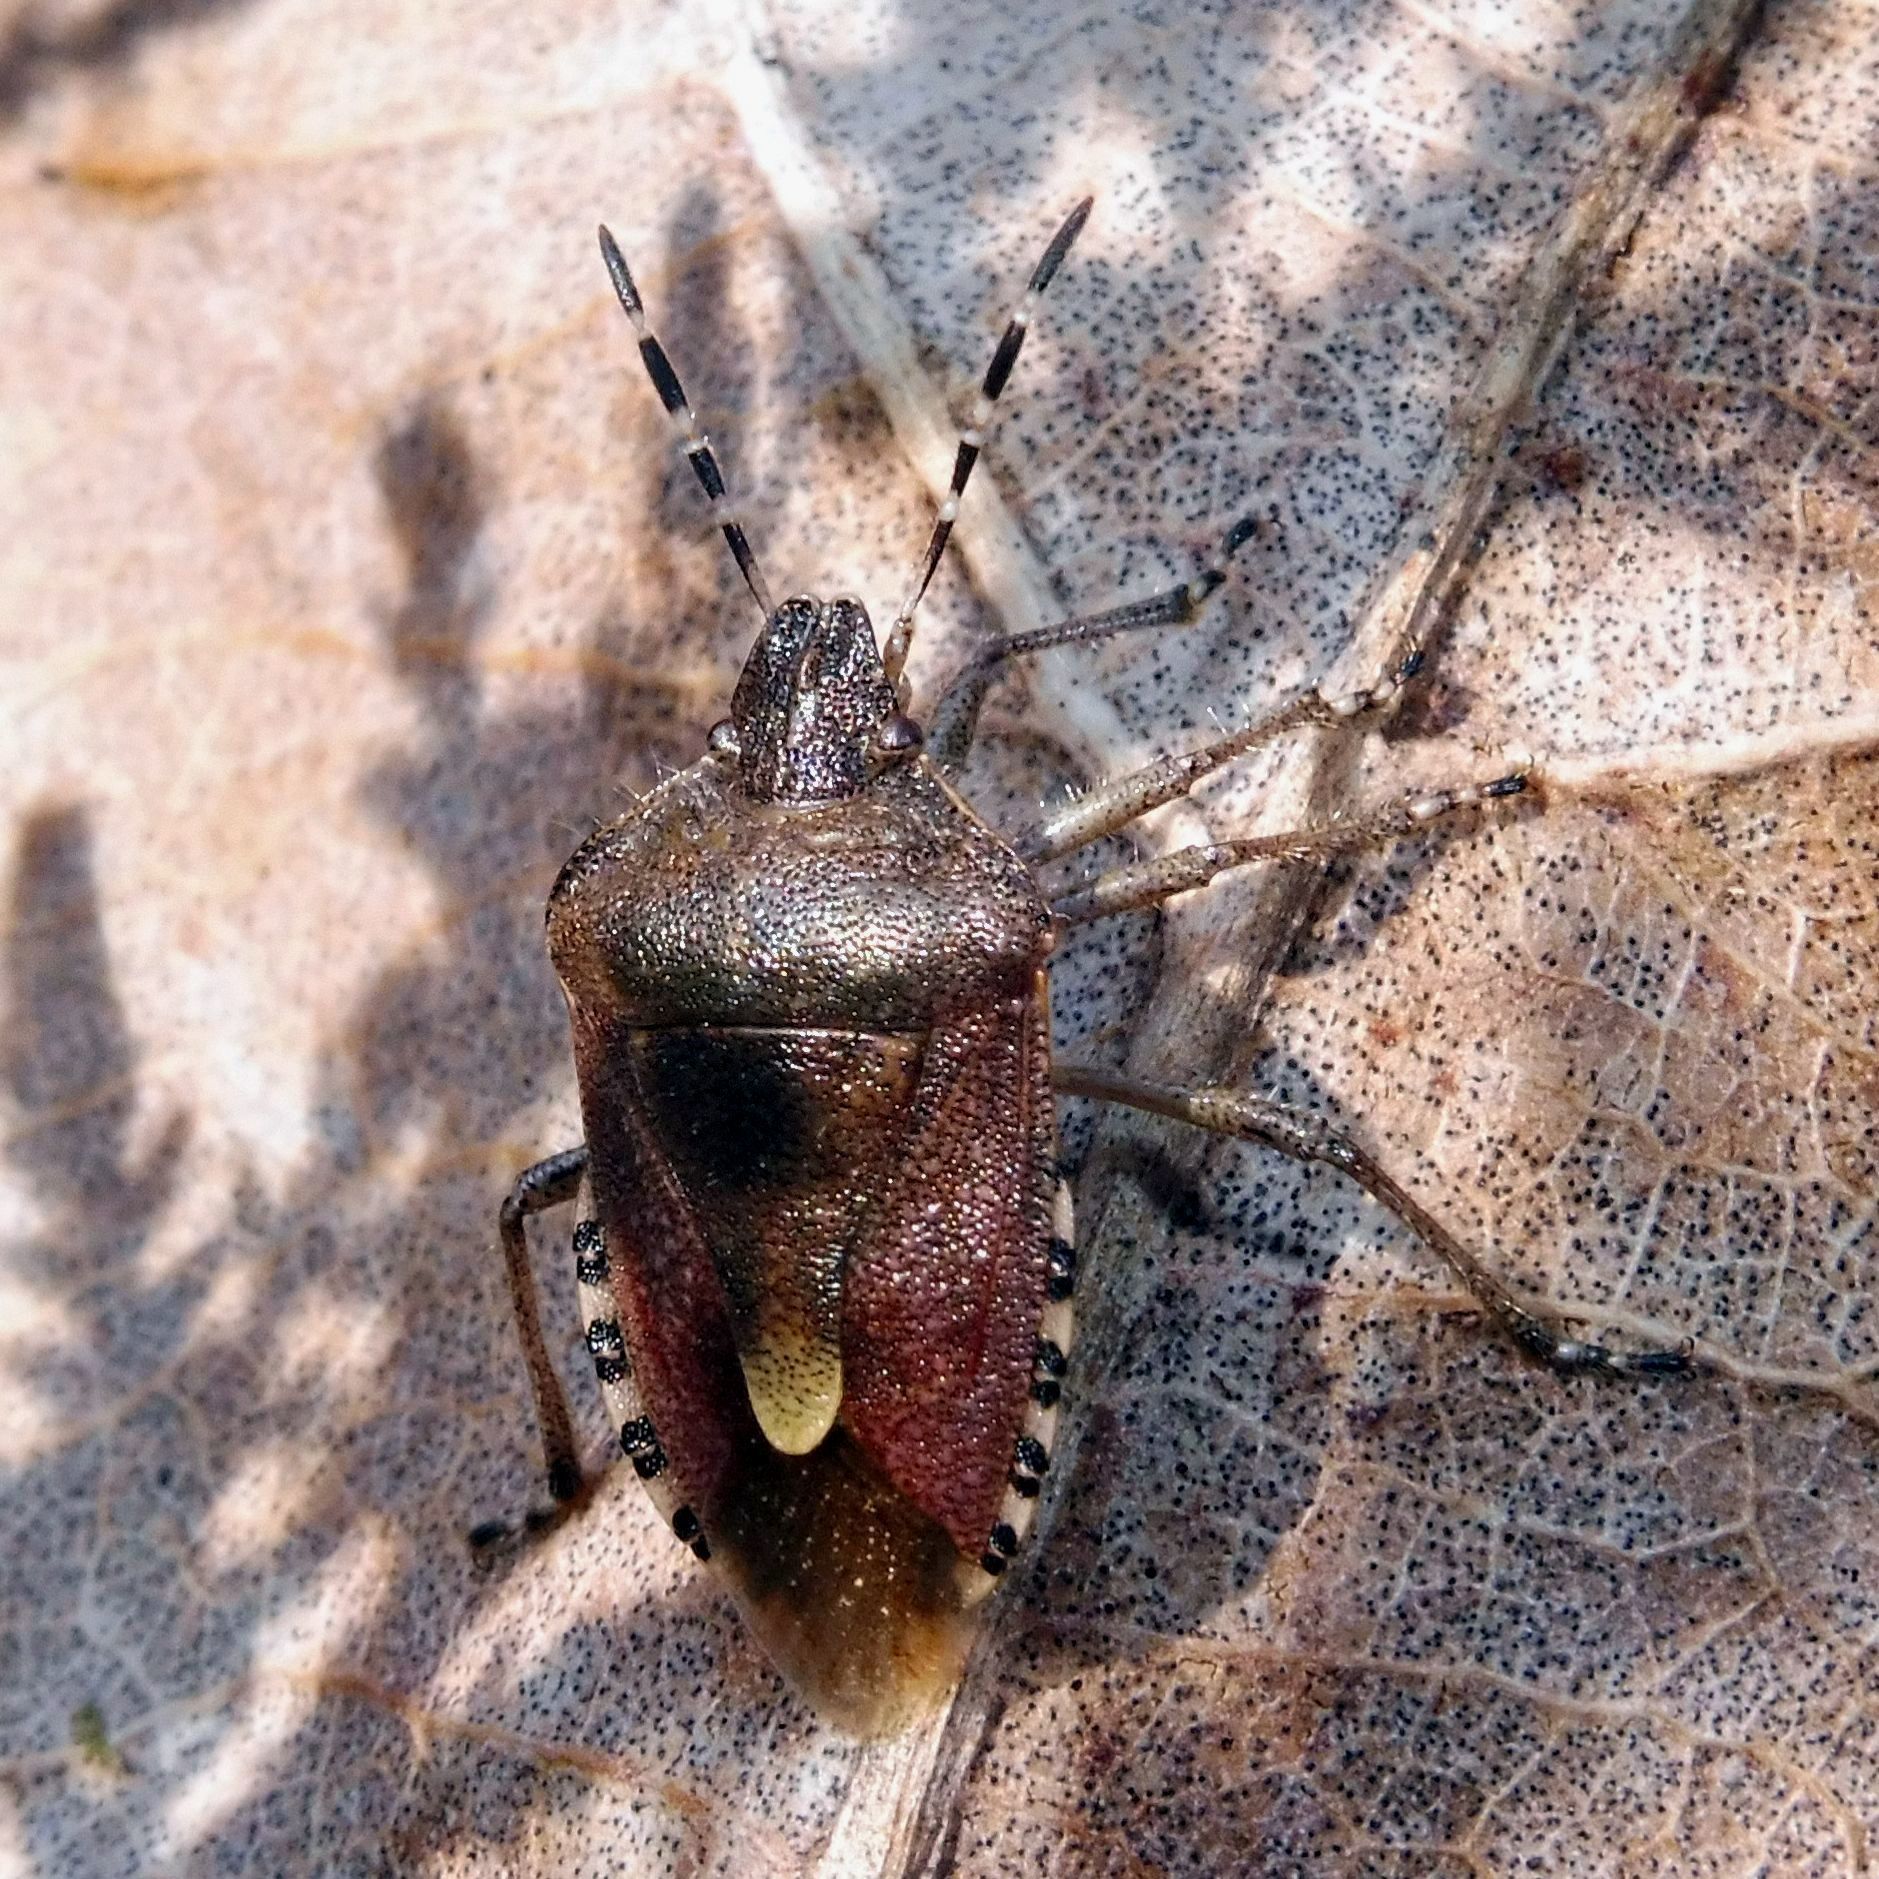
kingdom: Animalia
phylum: Arthropoda
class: Insecta
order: Hemiptera
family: Pentatomidae
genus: Dolycoris
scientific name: Dolycoris baccarum
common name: Sloe bug
